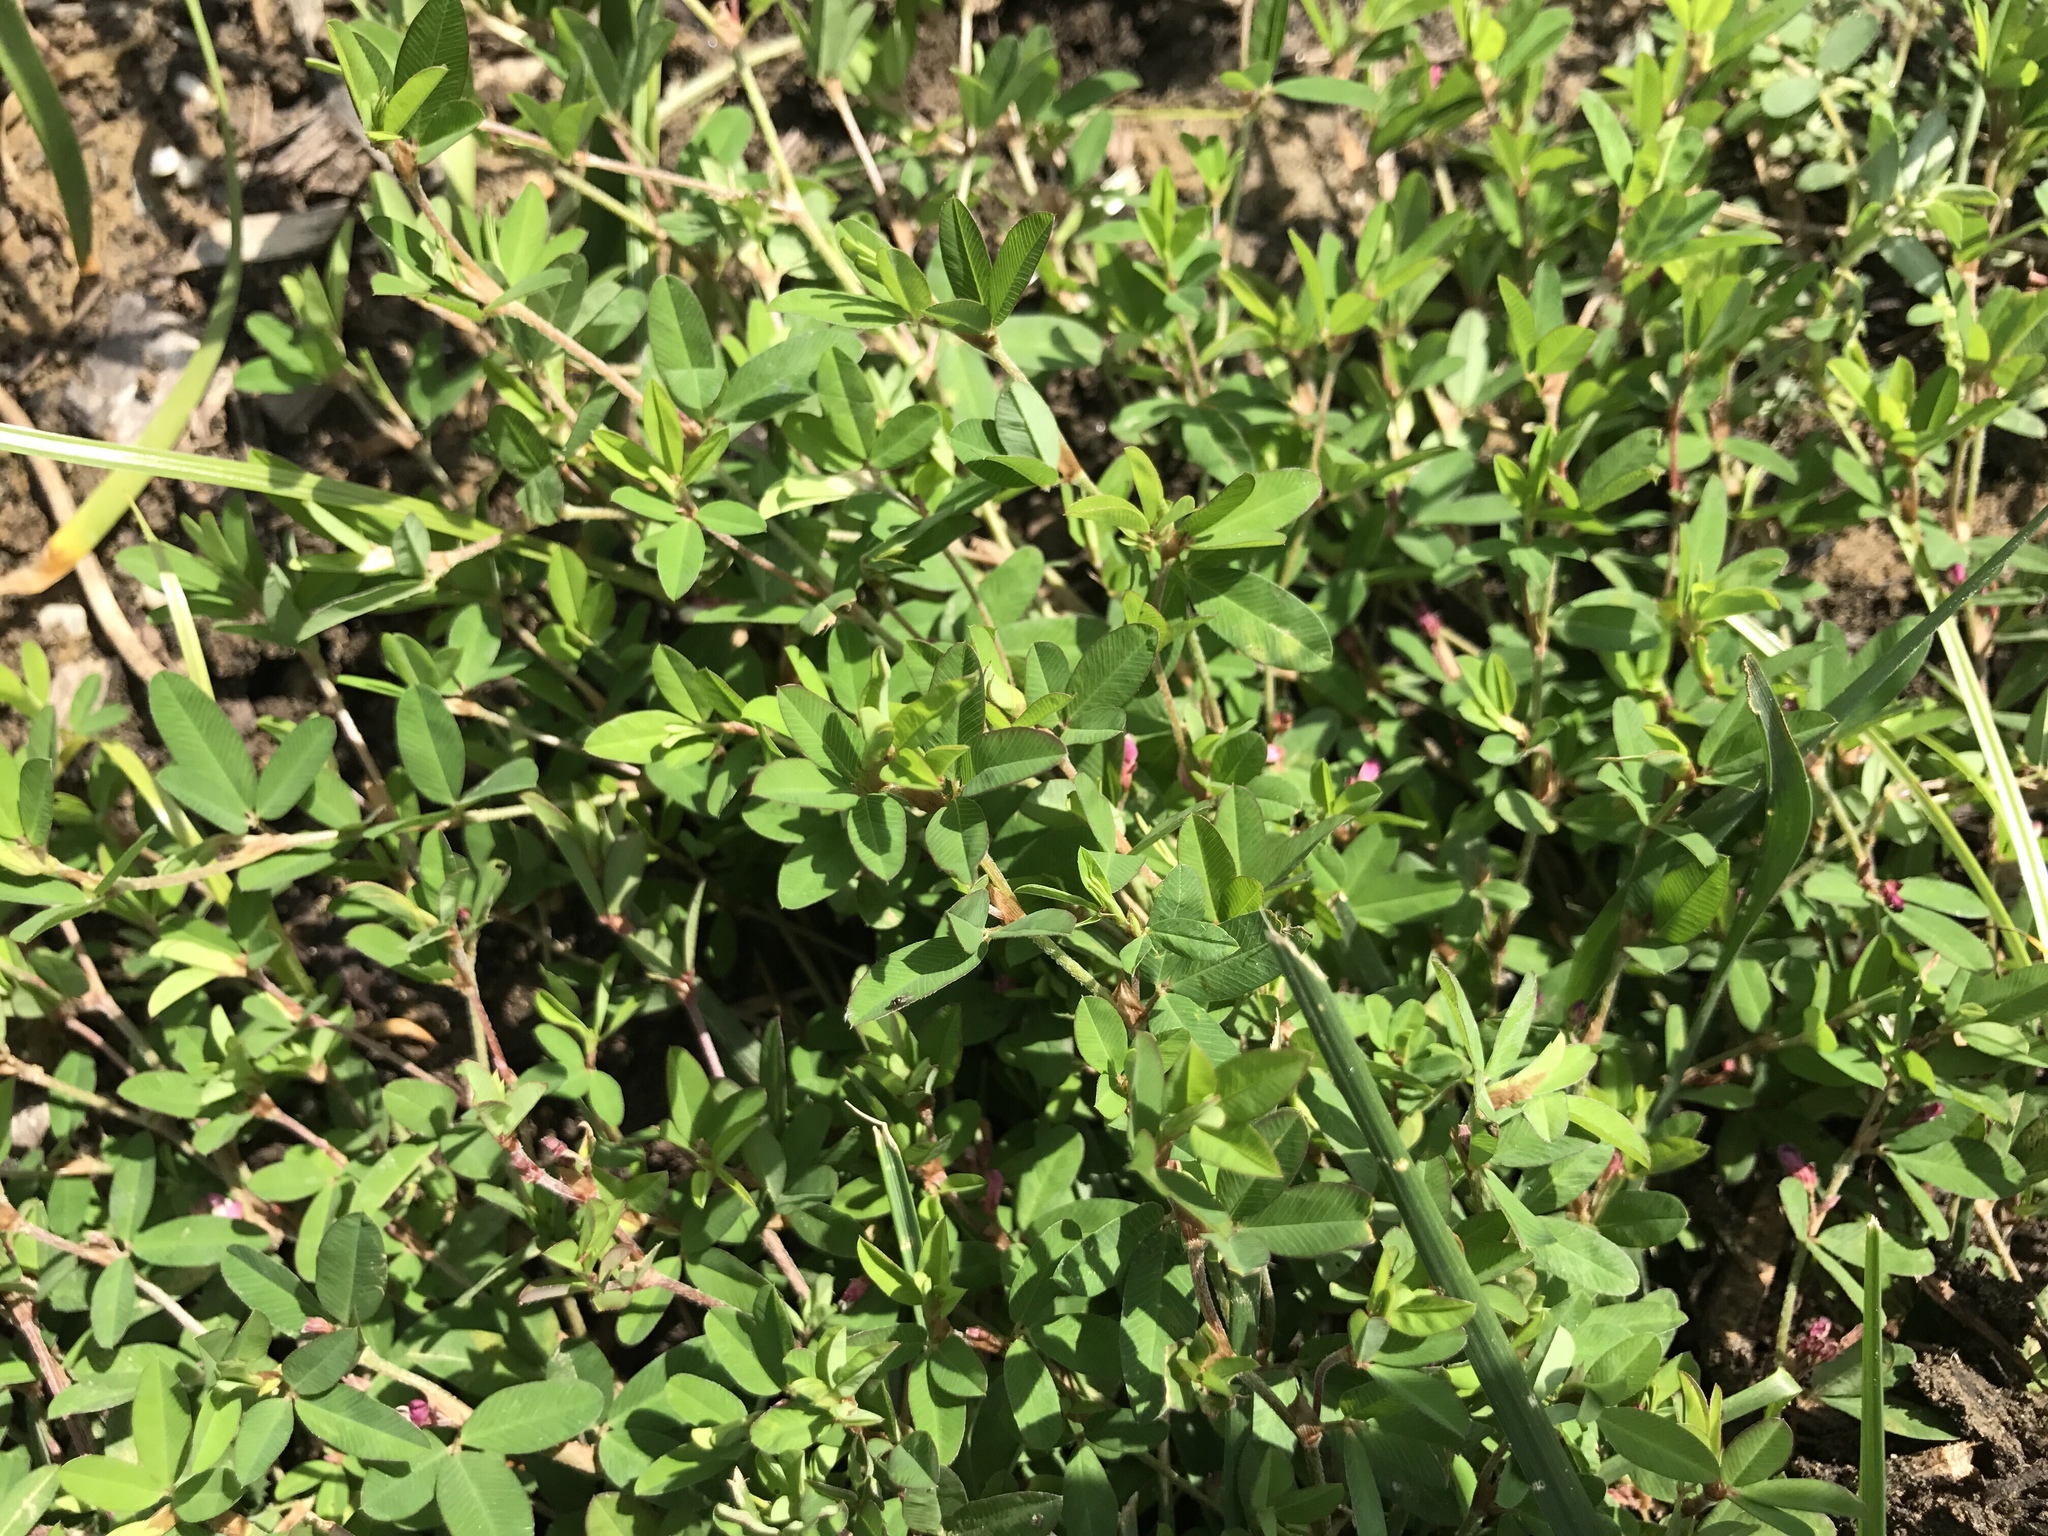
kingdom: Plantae
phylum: Tracheophyta
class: Magnoliopsida
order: Fabales
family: Fabaceae
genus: Kummerowia
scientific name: Kummerowia striata
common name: Japanese clover
